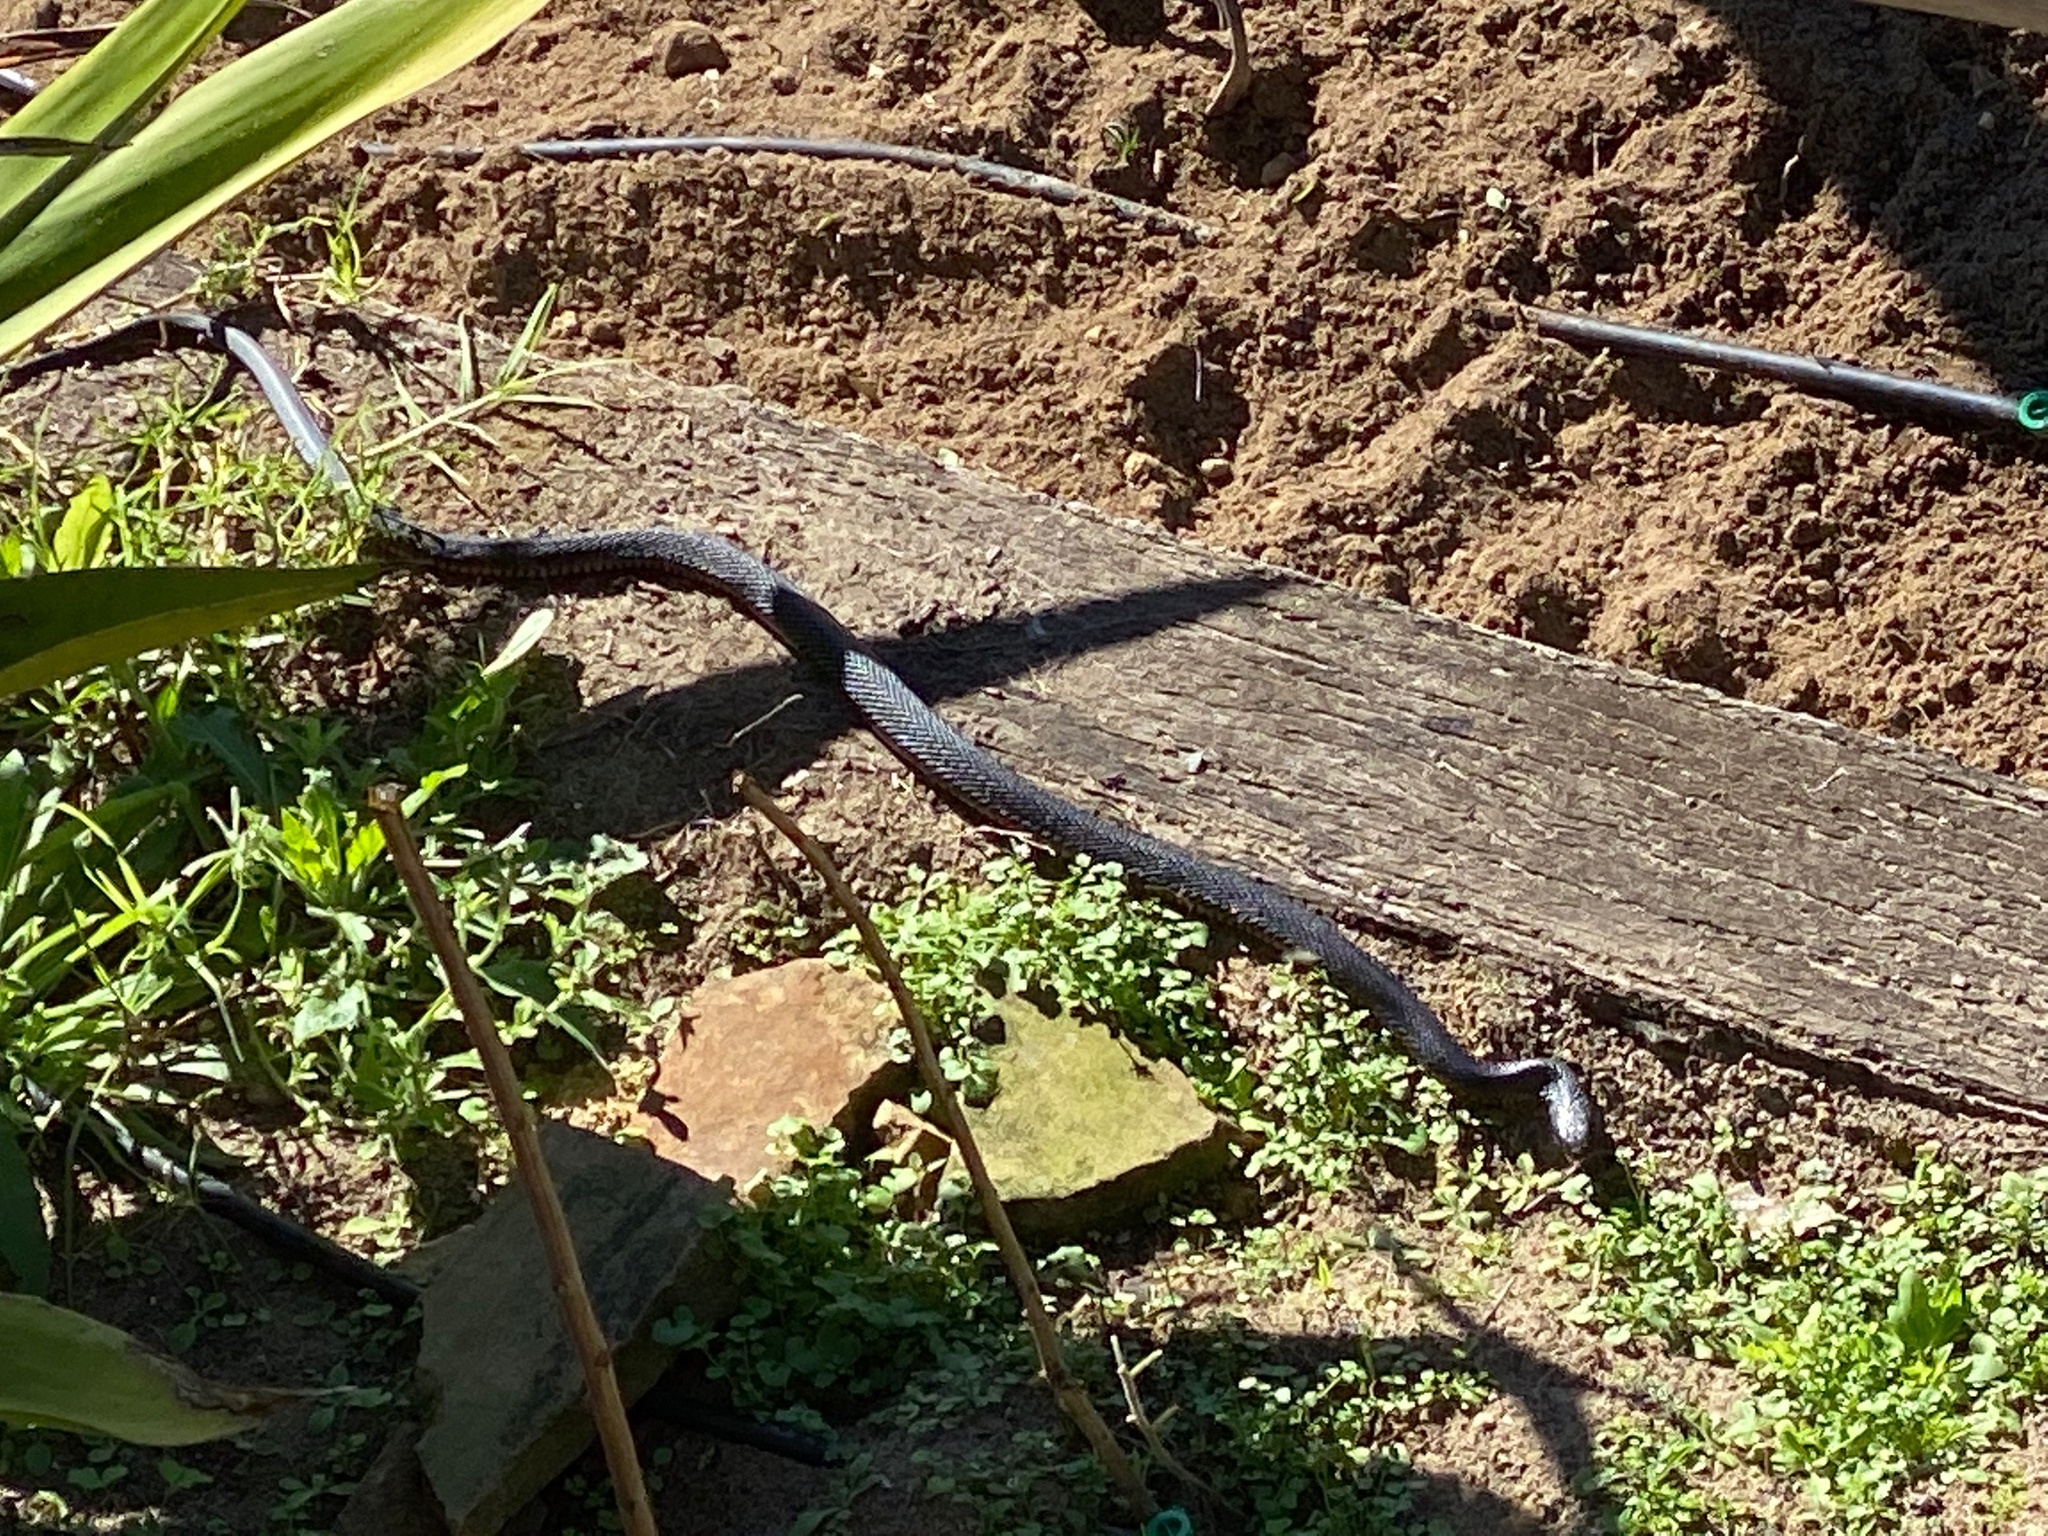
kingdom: Animalia
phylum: Chordata
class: Squamata
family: Elapidae
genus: Pseudechis
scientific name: Pseudechis porphyriacus
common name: Australian black snake
